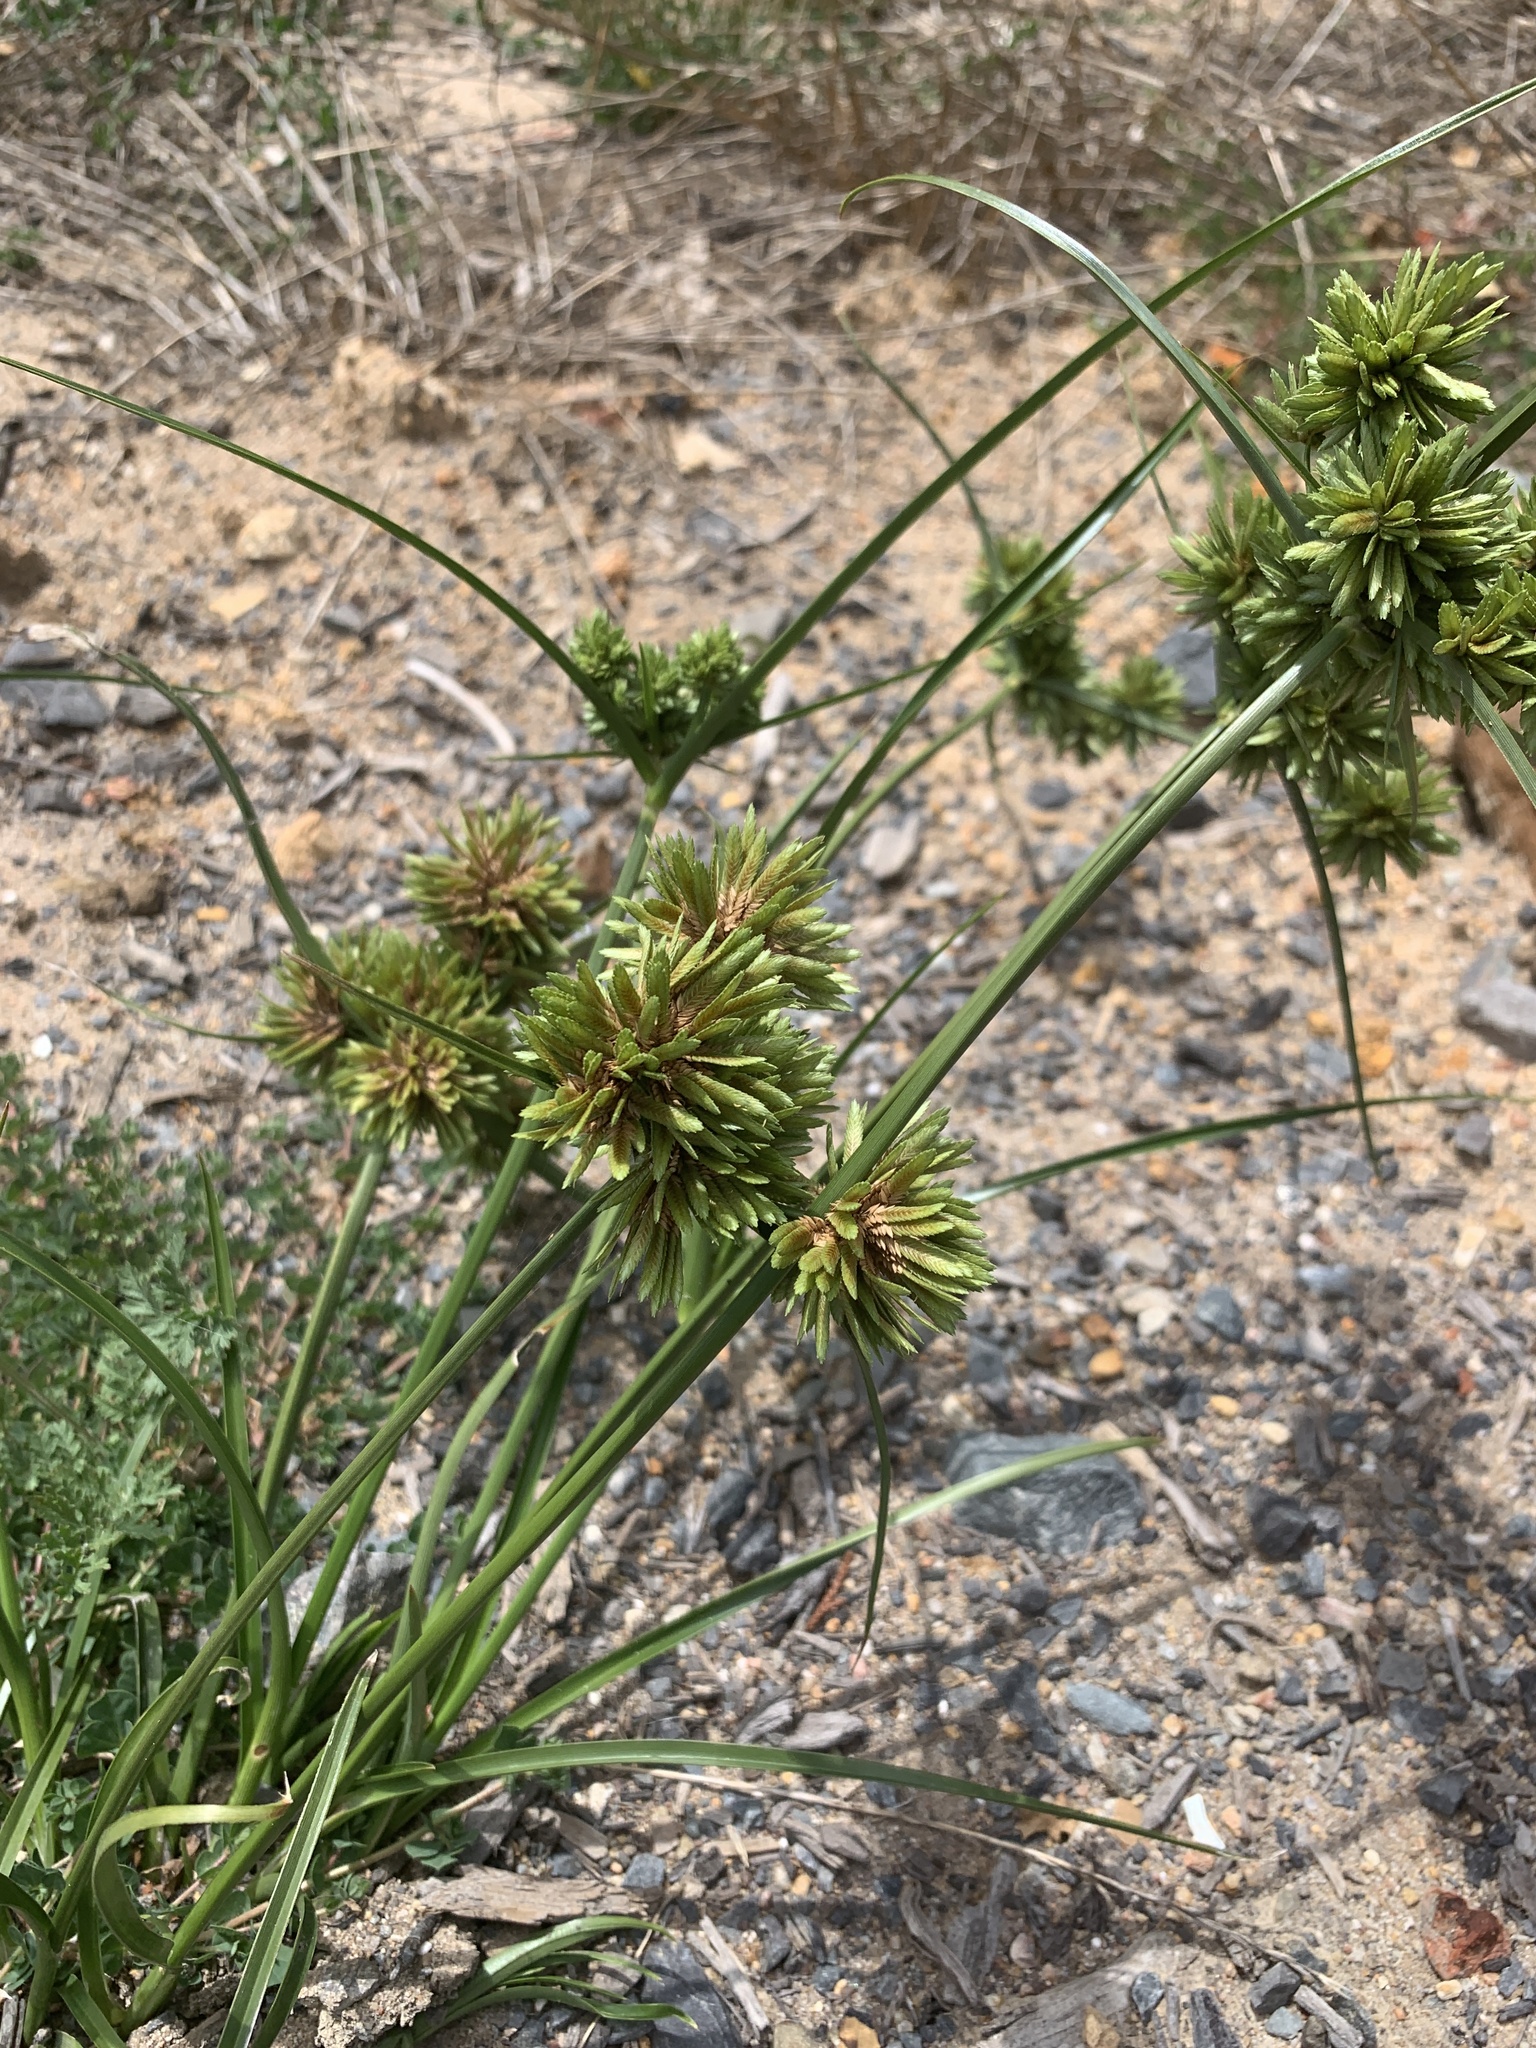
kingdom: Plantae
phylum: Tracheophyta
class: Liliopsida
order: Poales
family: Cyperaceae
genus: Cyperus
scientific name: Cyperus eragrostis
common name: Tall flatsedge
